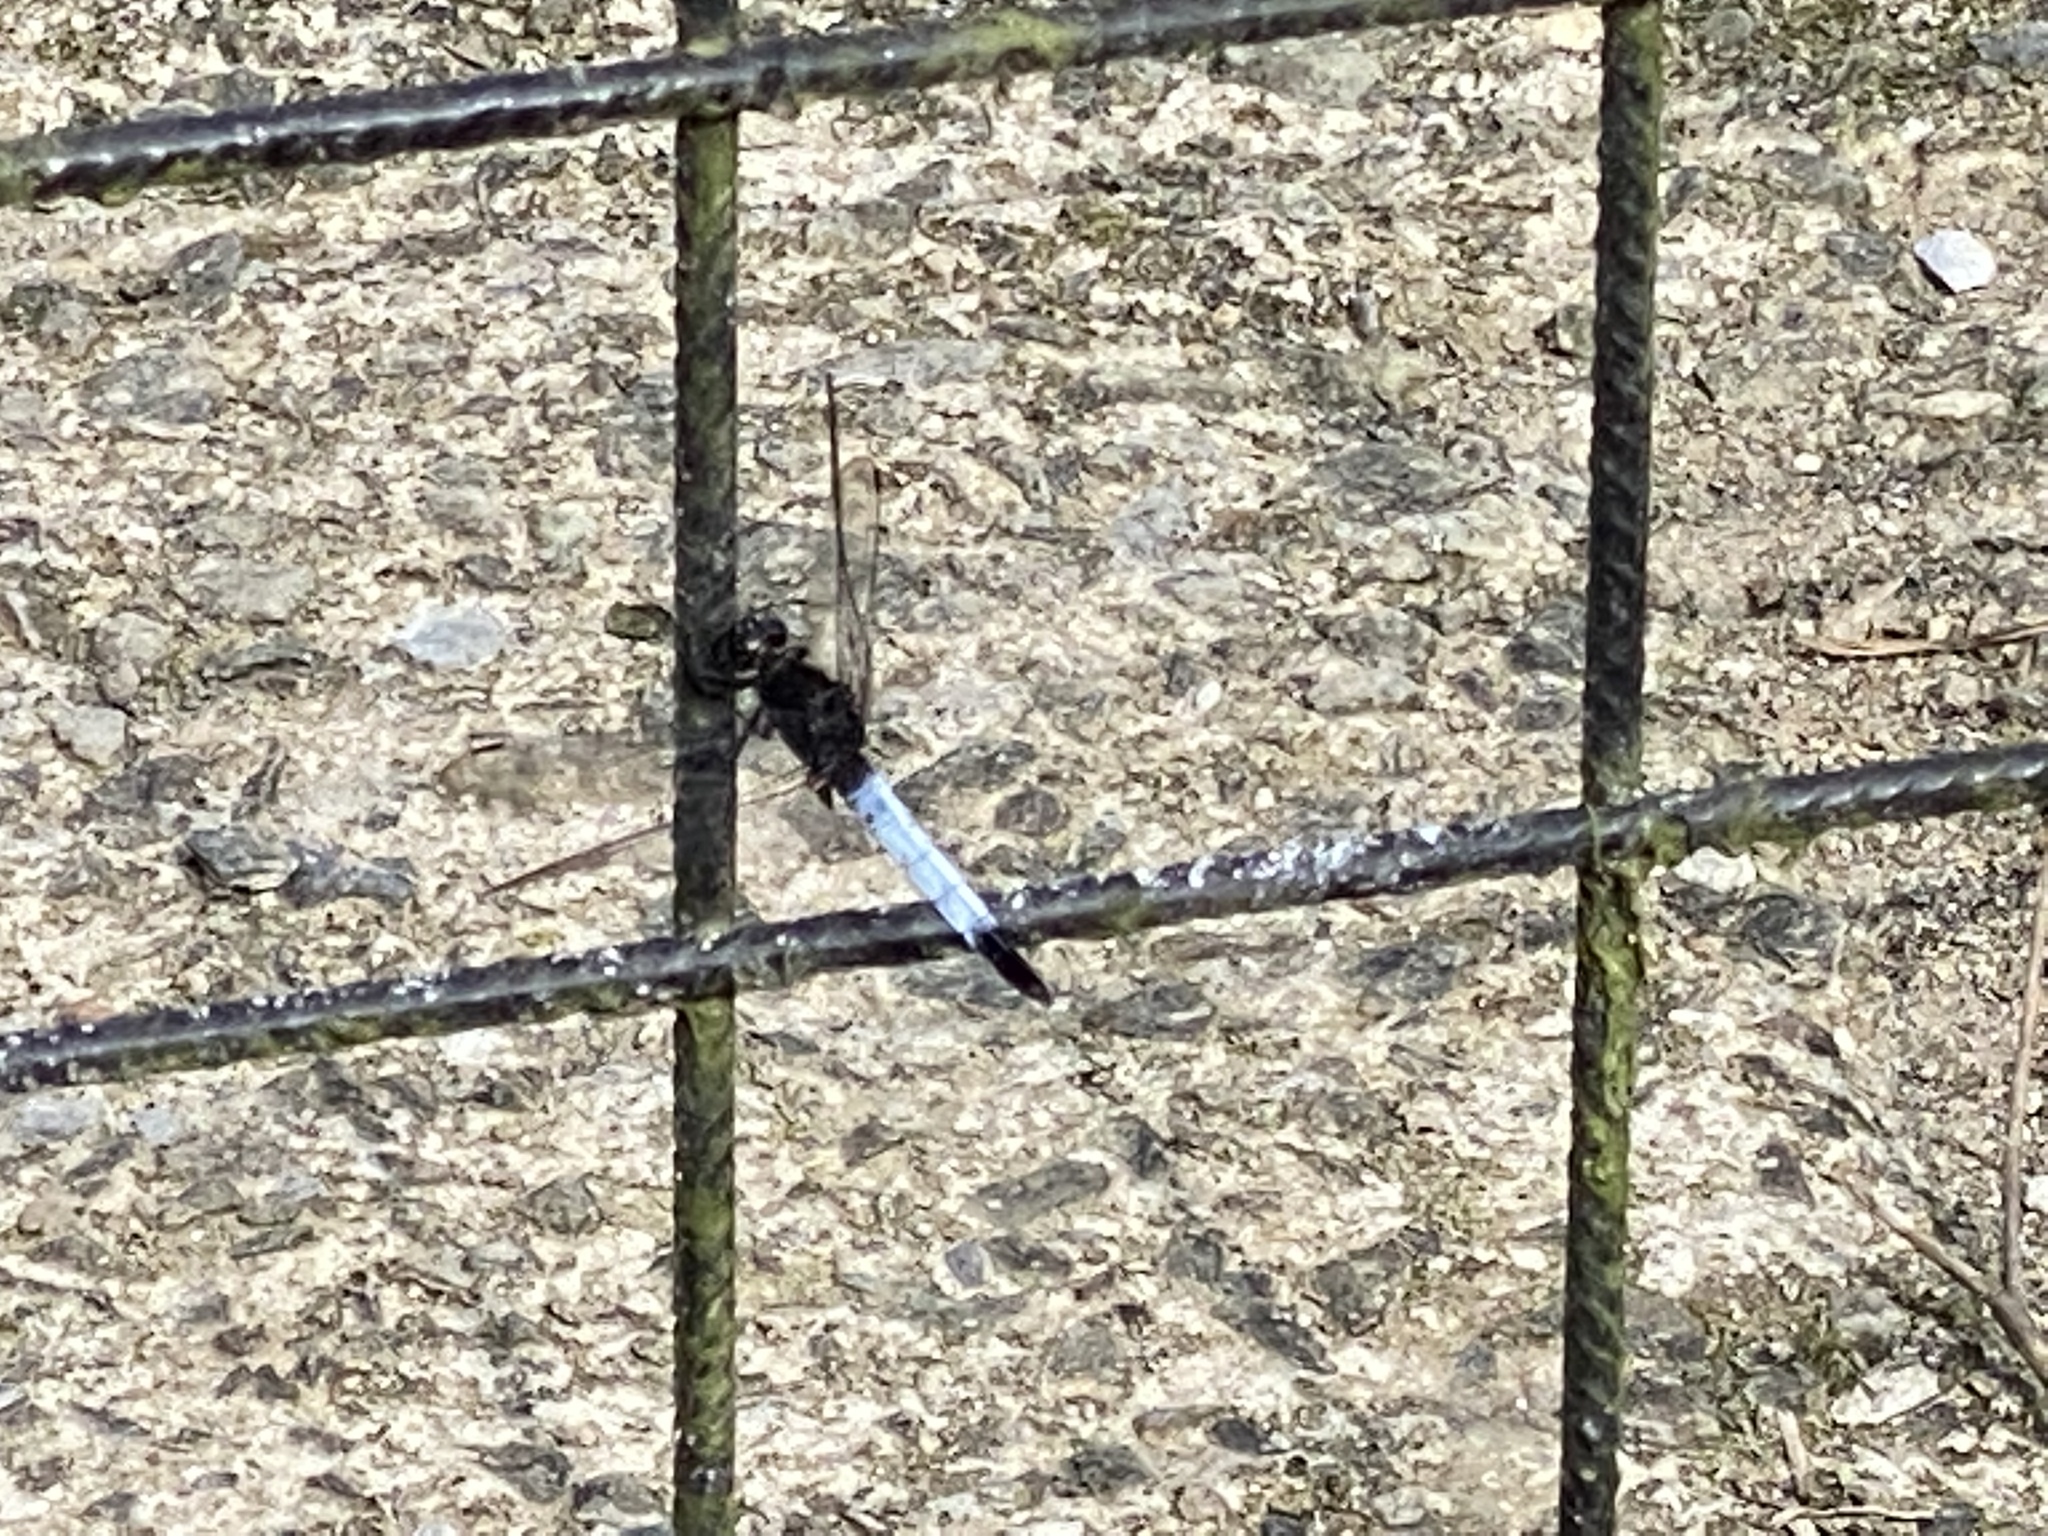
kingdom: Animalia
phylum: Arthropoda
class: Insecta
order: Odonata
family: Libellulidae
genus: Orthetrum
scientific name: Orthetrum triangulare
